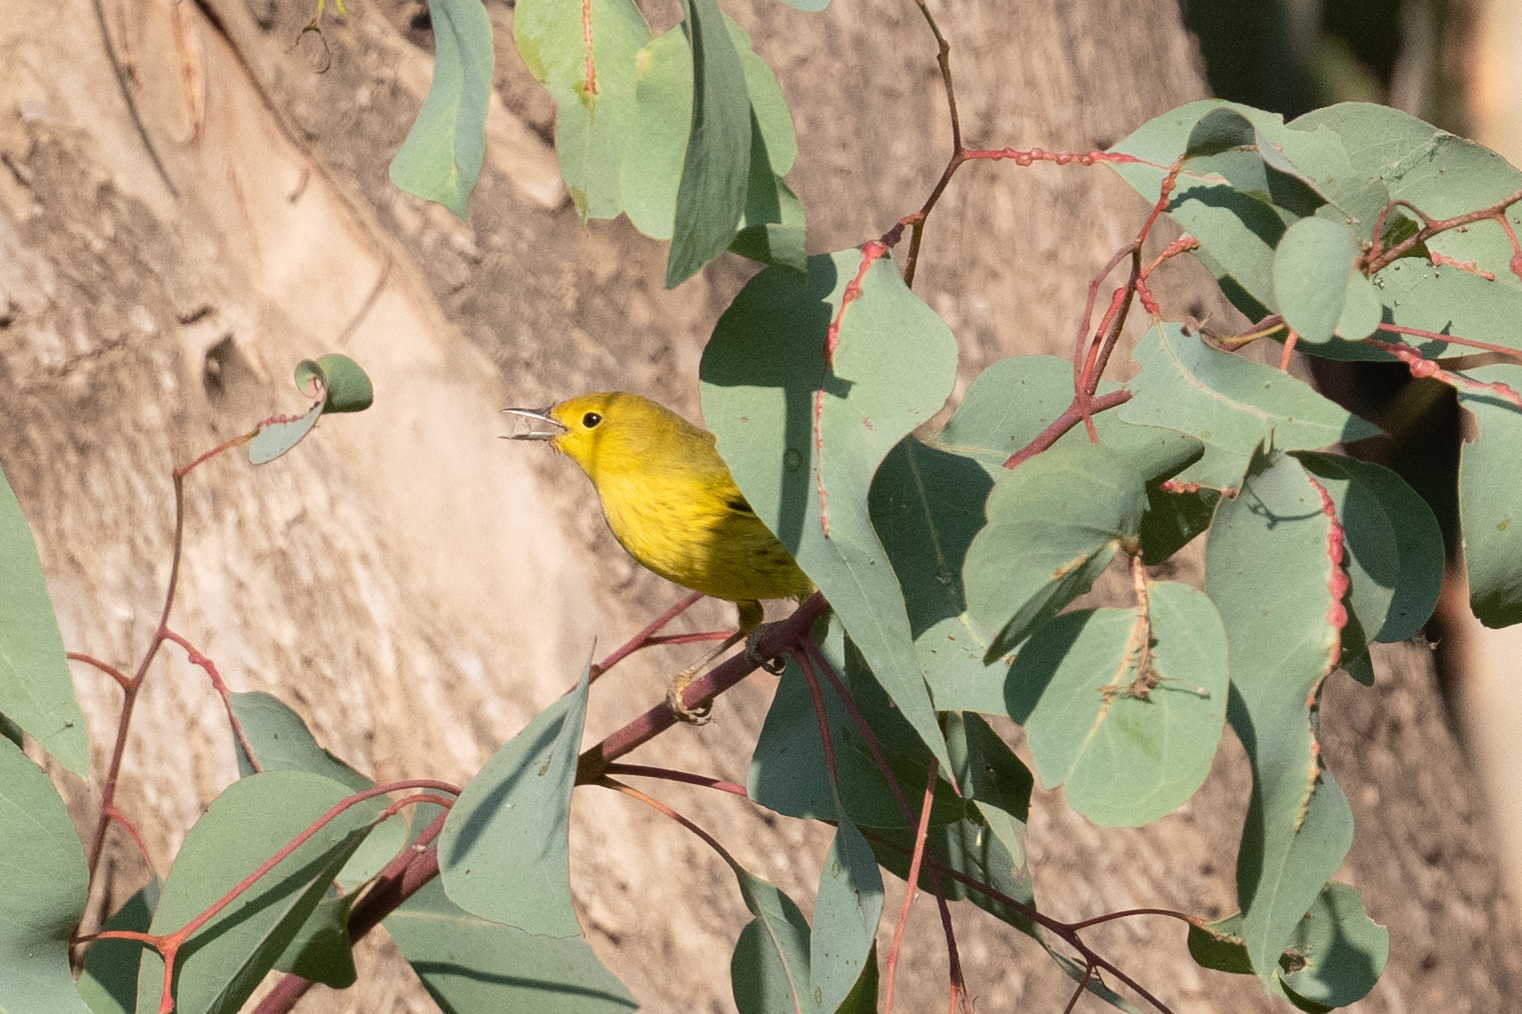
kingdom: Animalia
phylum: Chordata
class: Aves
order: Passeriformes
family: Parulidae
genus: Setophaga
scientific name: Setophaga petechia
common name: Yellow warbler
